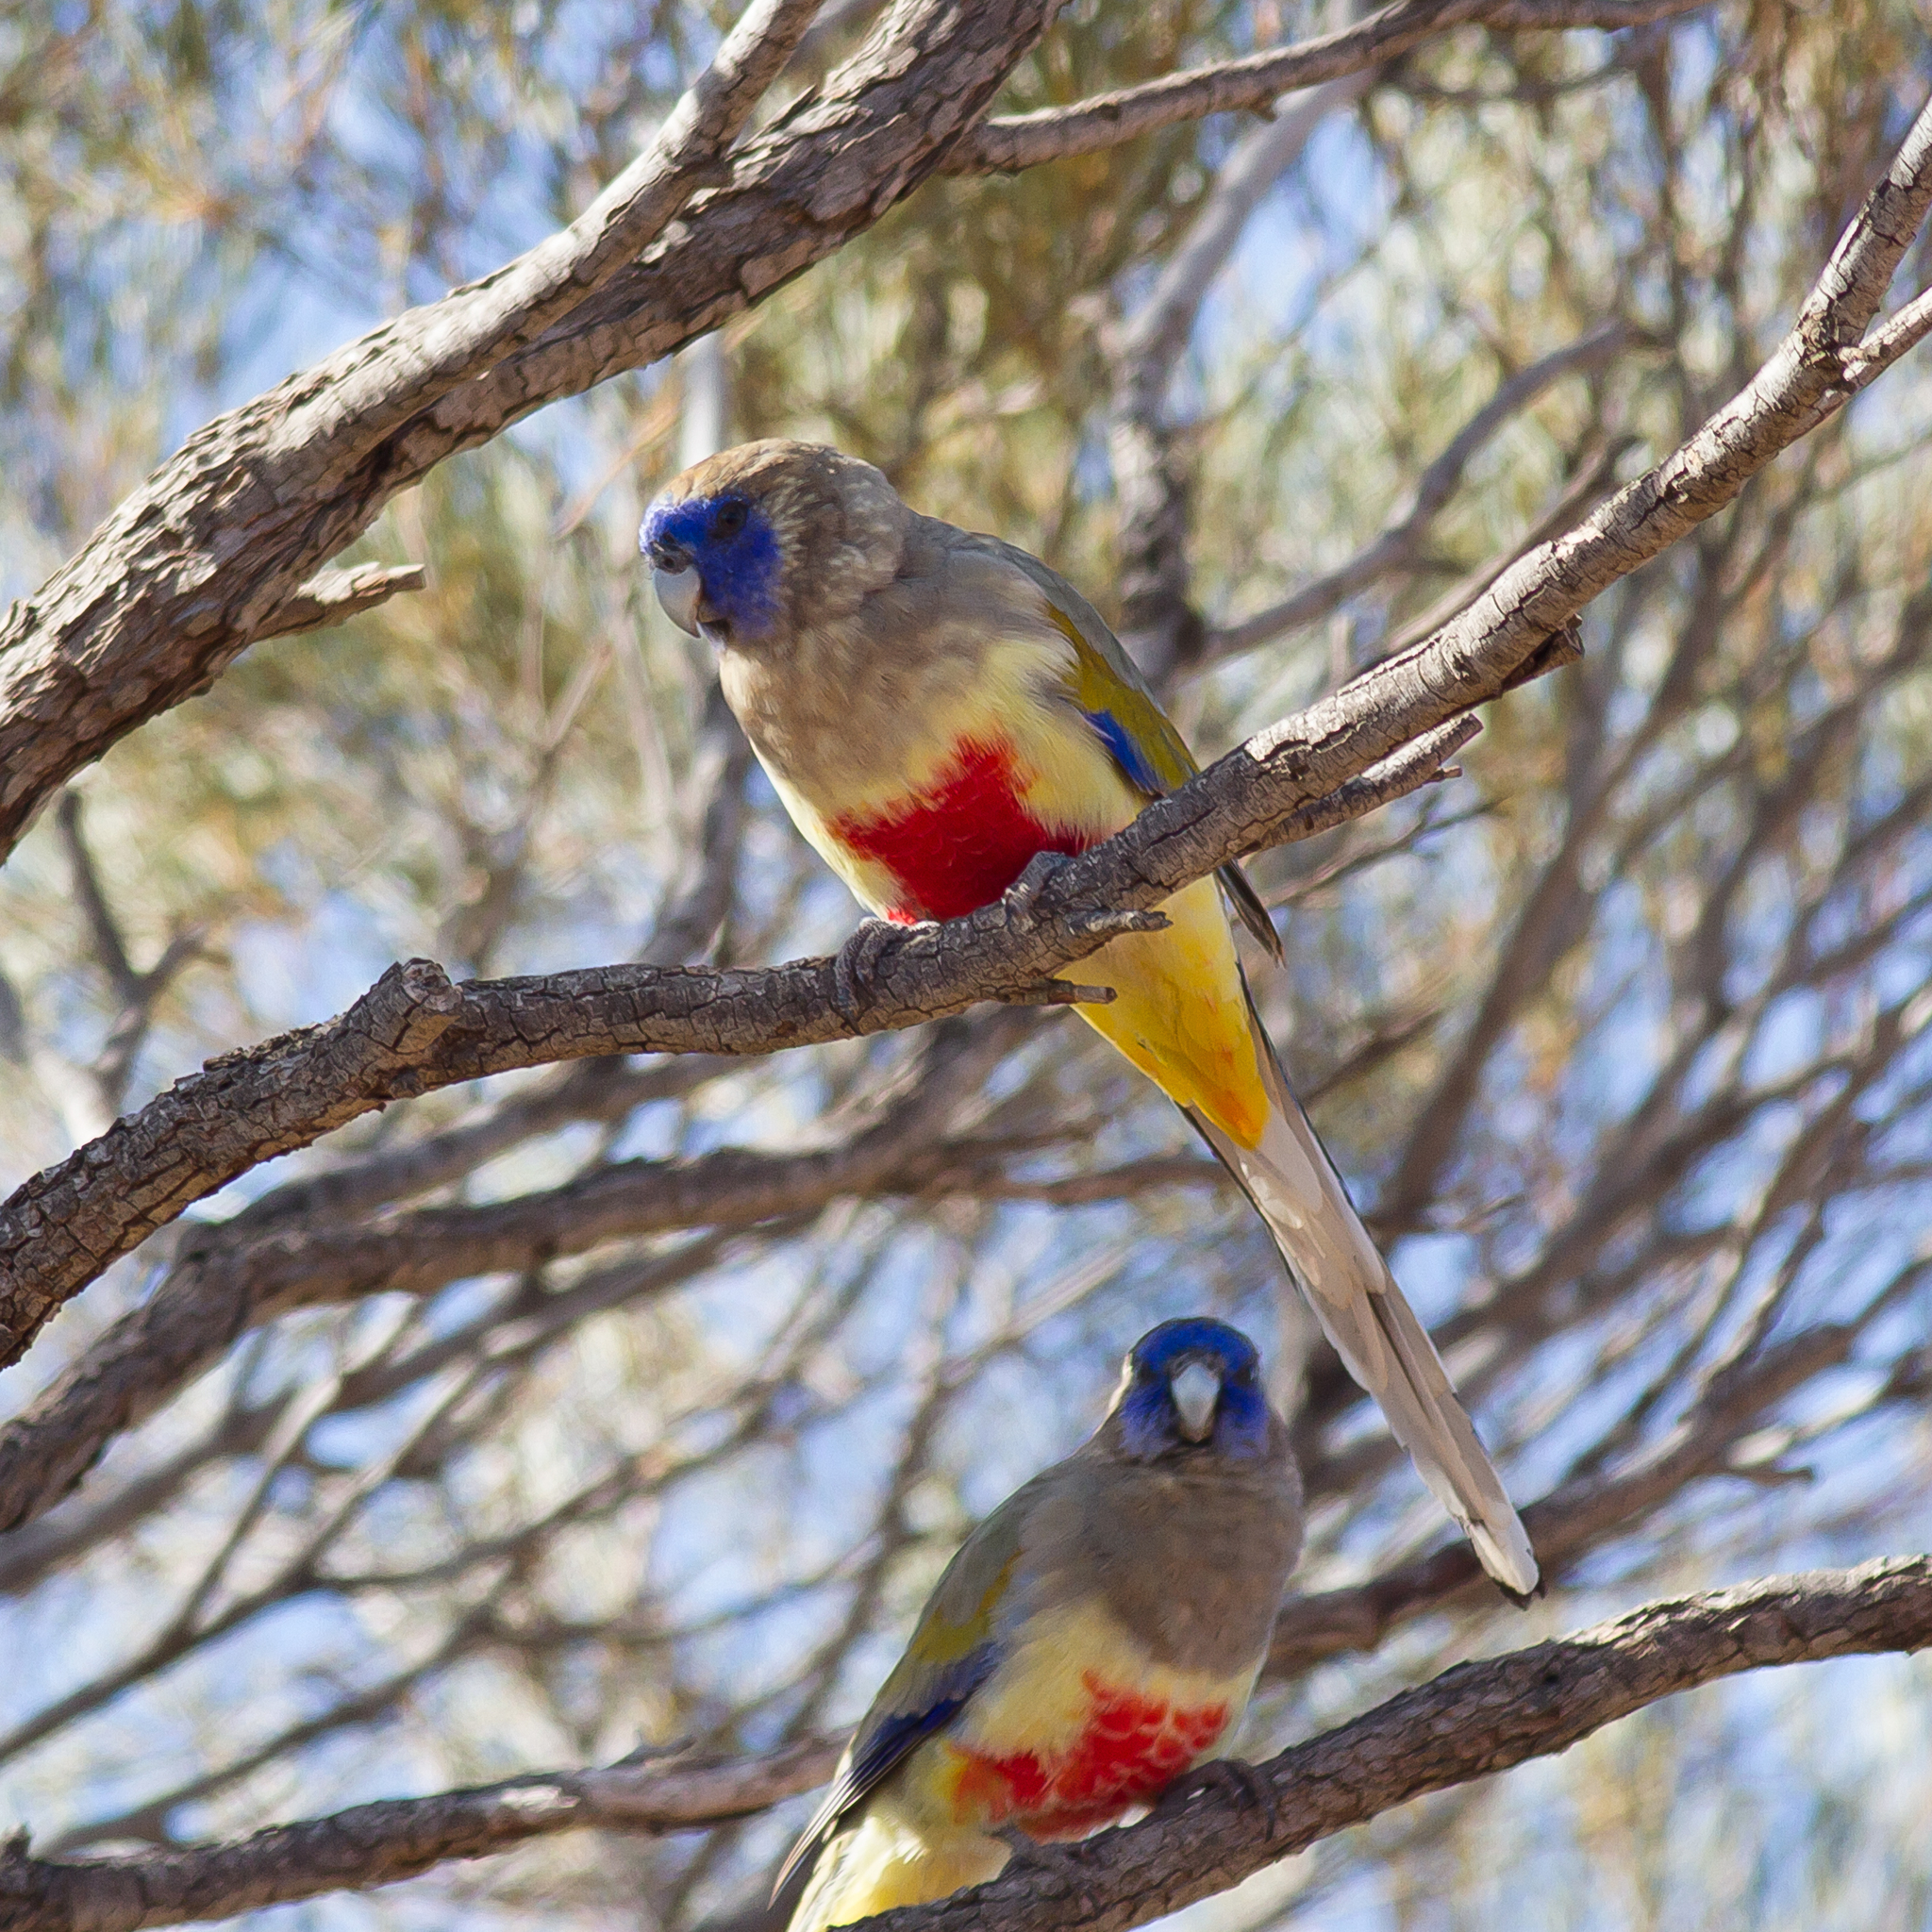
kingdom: Animalia
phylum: Chordata
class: Aves
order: Psittaciformes
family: Psittacidae
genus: Northiella
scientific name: Northiella haematogaster
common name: Bluebonnet
